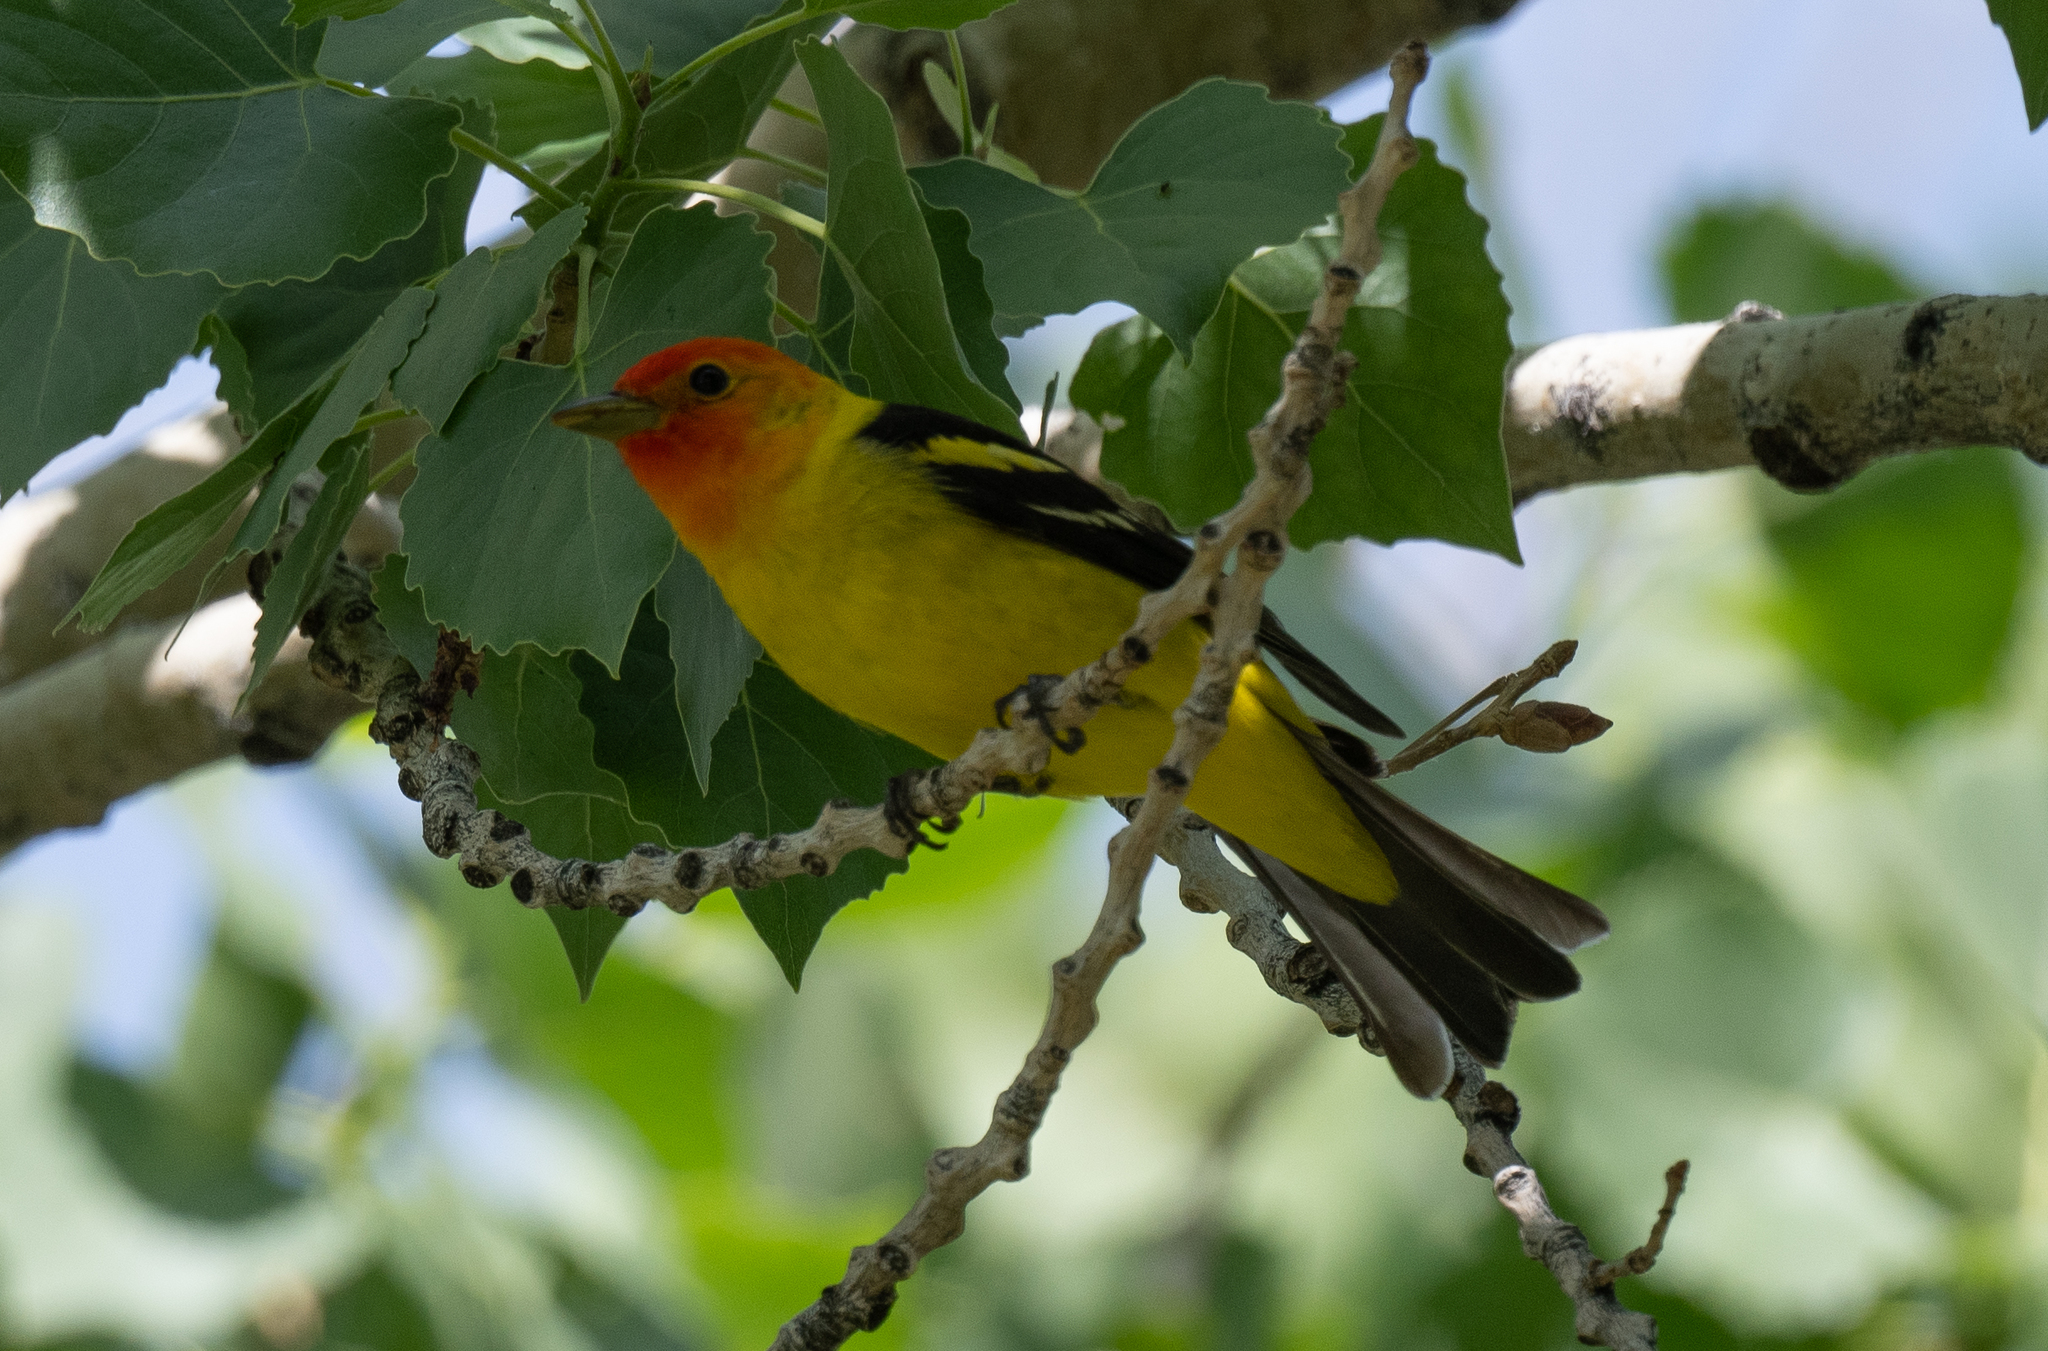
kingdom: Animalia
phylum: Chordata
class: Aves
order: Passeriformes
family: Cardinalidae
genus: Piranga
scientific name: Piranga ludoviciana
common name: Western tanager
